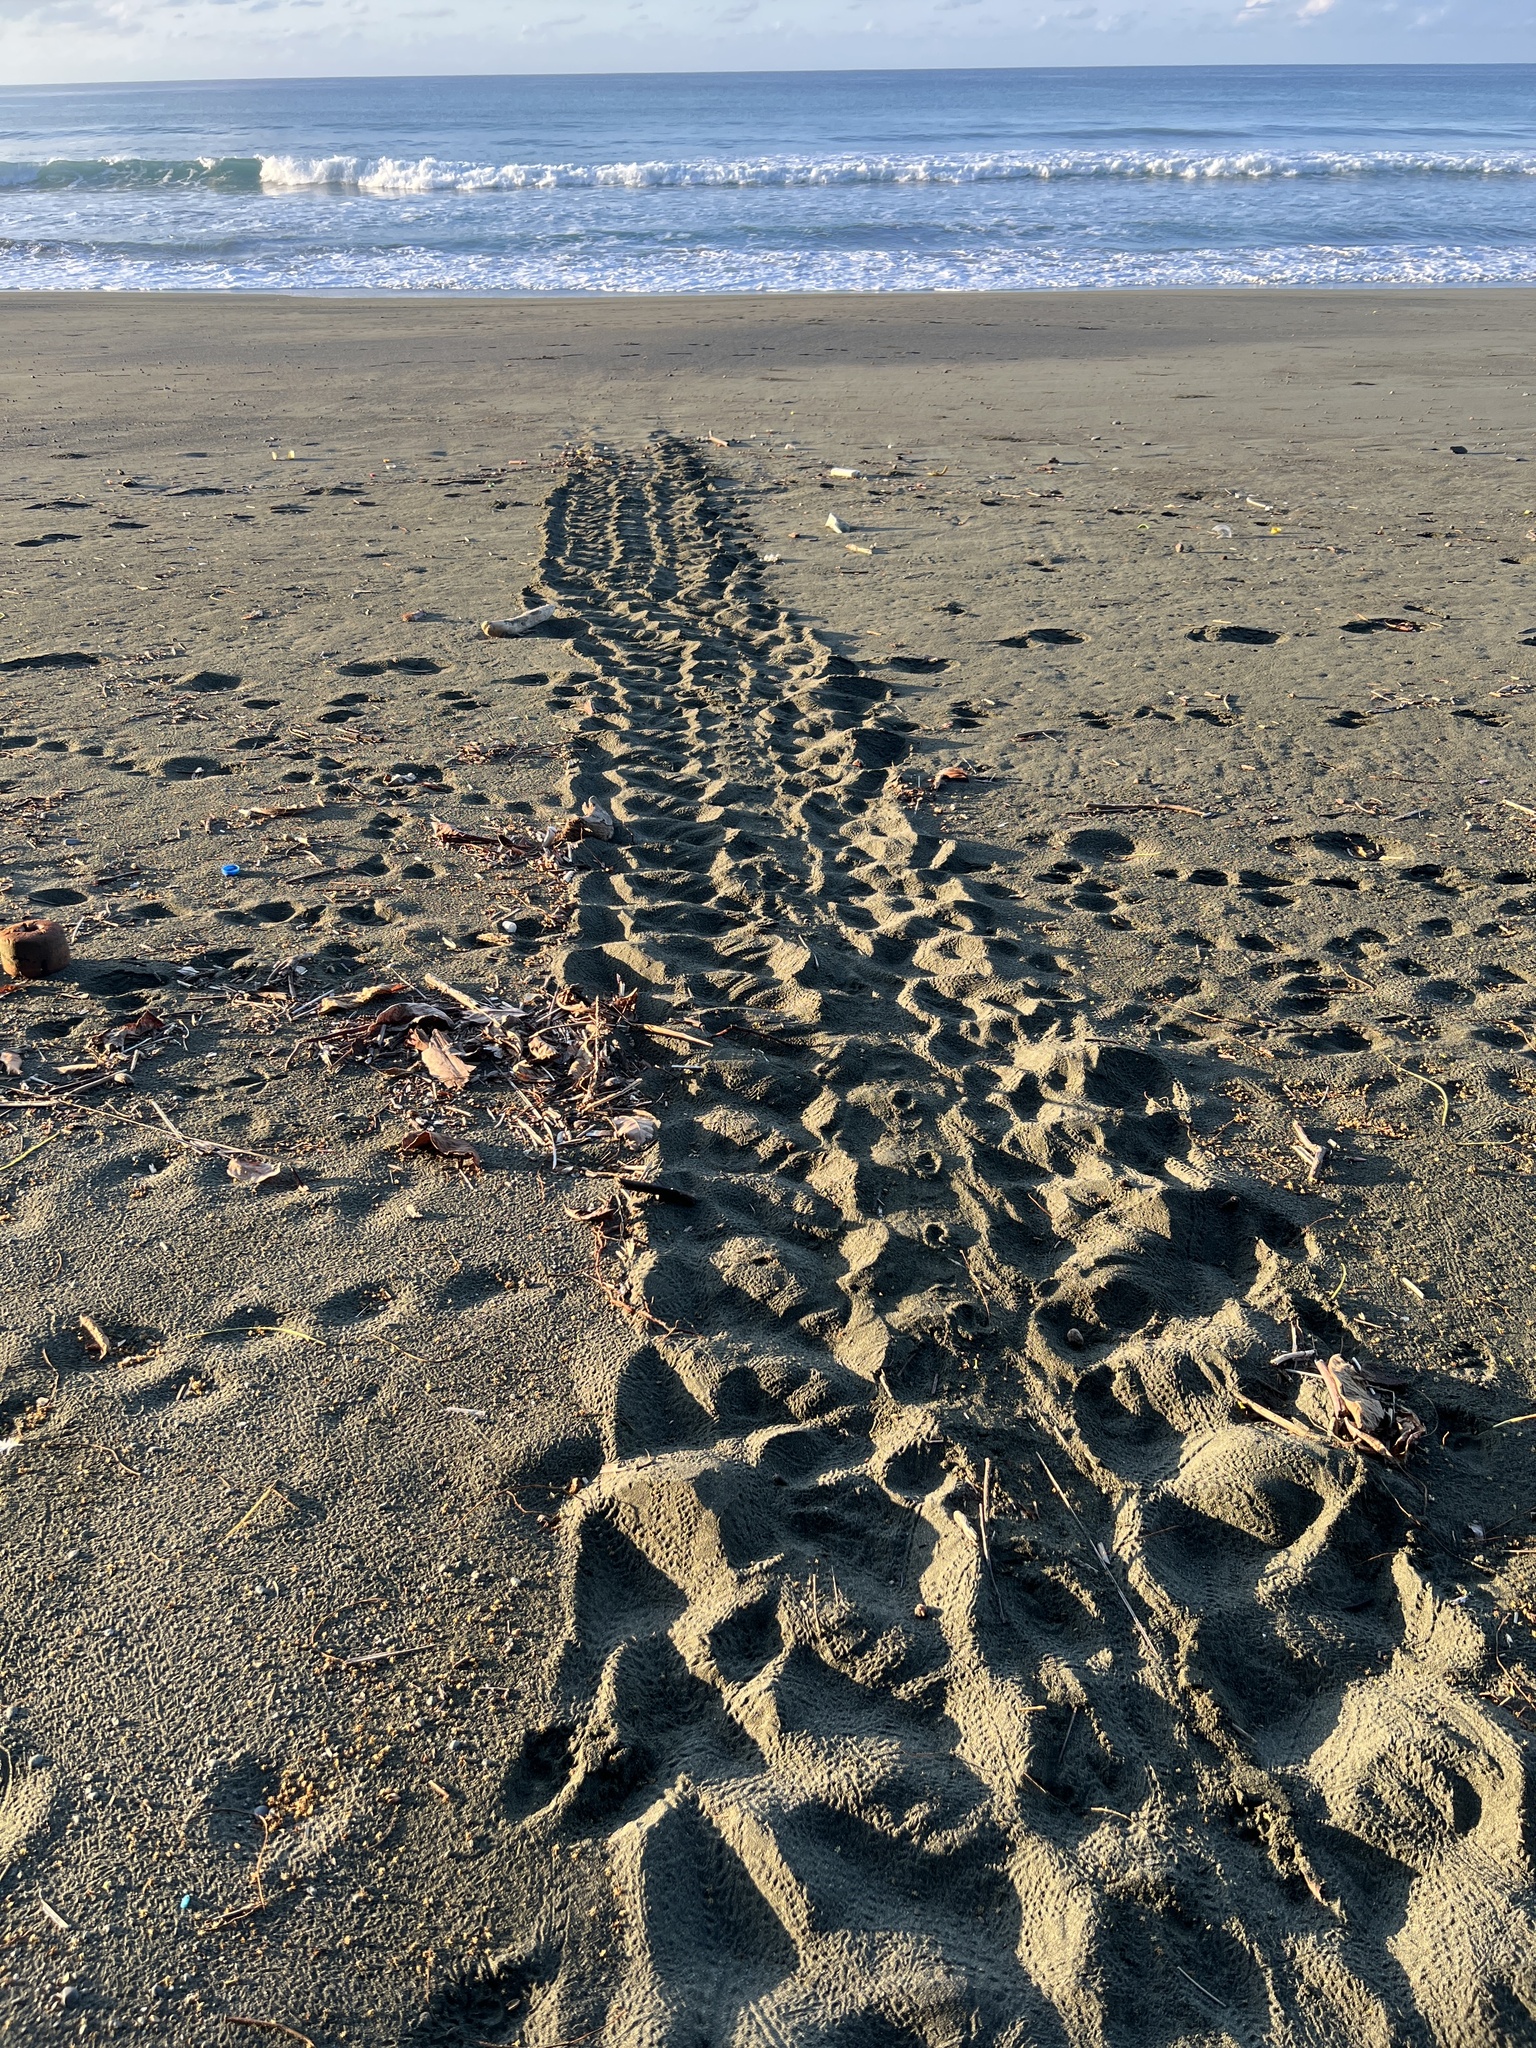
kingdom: Animalia
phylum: Chordata
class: Testudines
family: Cheloniidae
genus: Chelonia
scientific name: Chelonia mydas
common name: Green turtle
